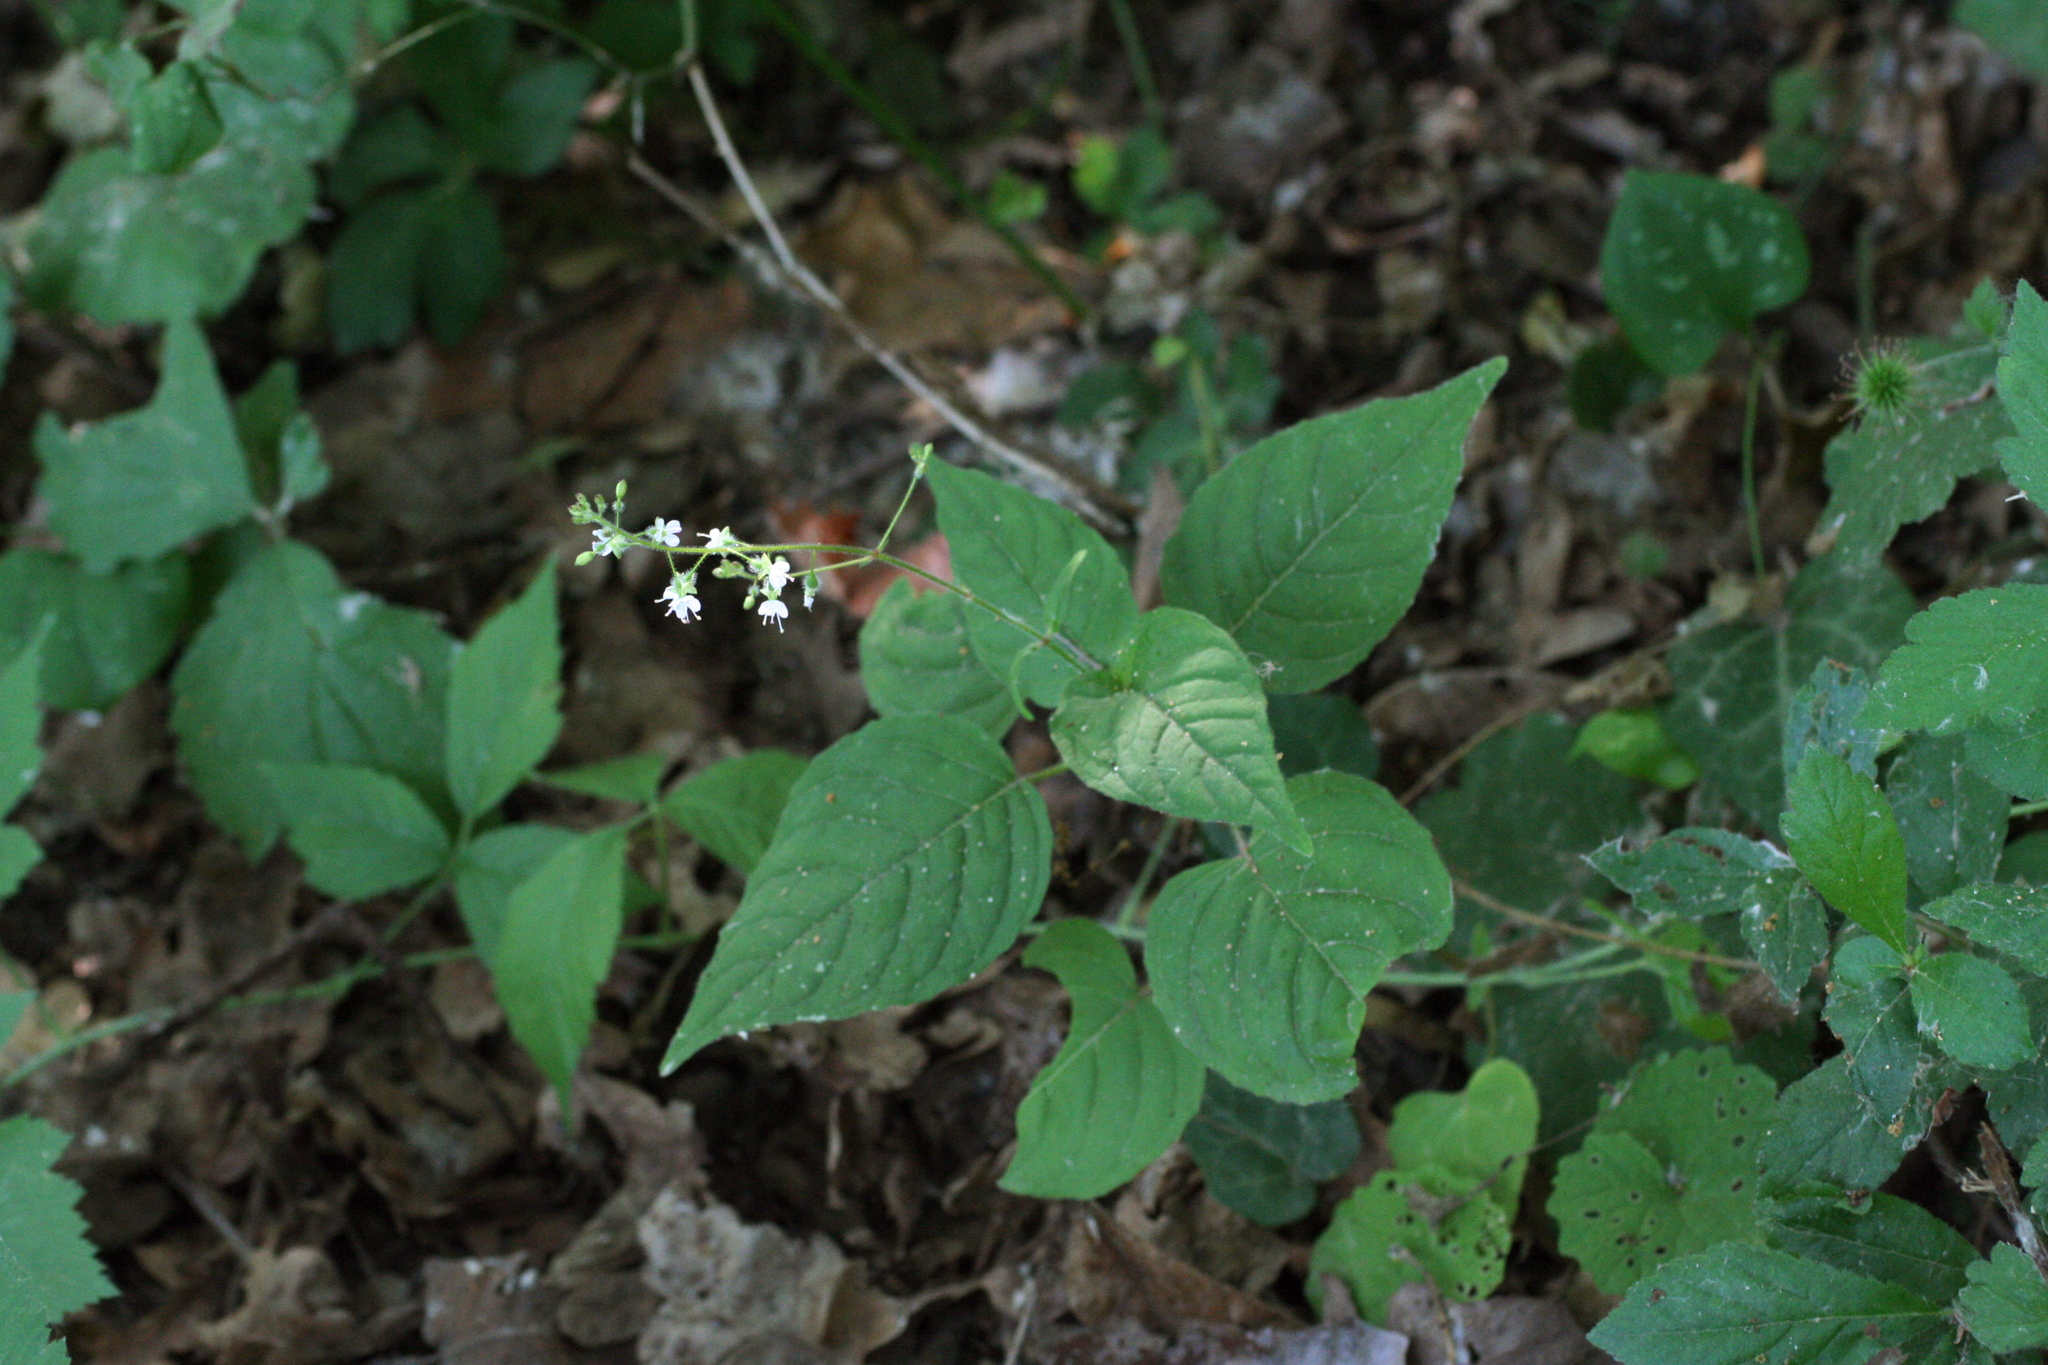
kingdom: Plantae
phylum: Tracheophyta
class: Magnoliopsida
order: Myrtales
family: Onagraceae
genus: Circaea
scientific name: Circaea lutetiana
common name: Enchanter's-nightshade
